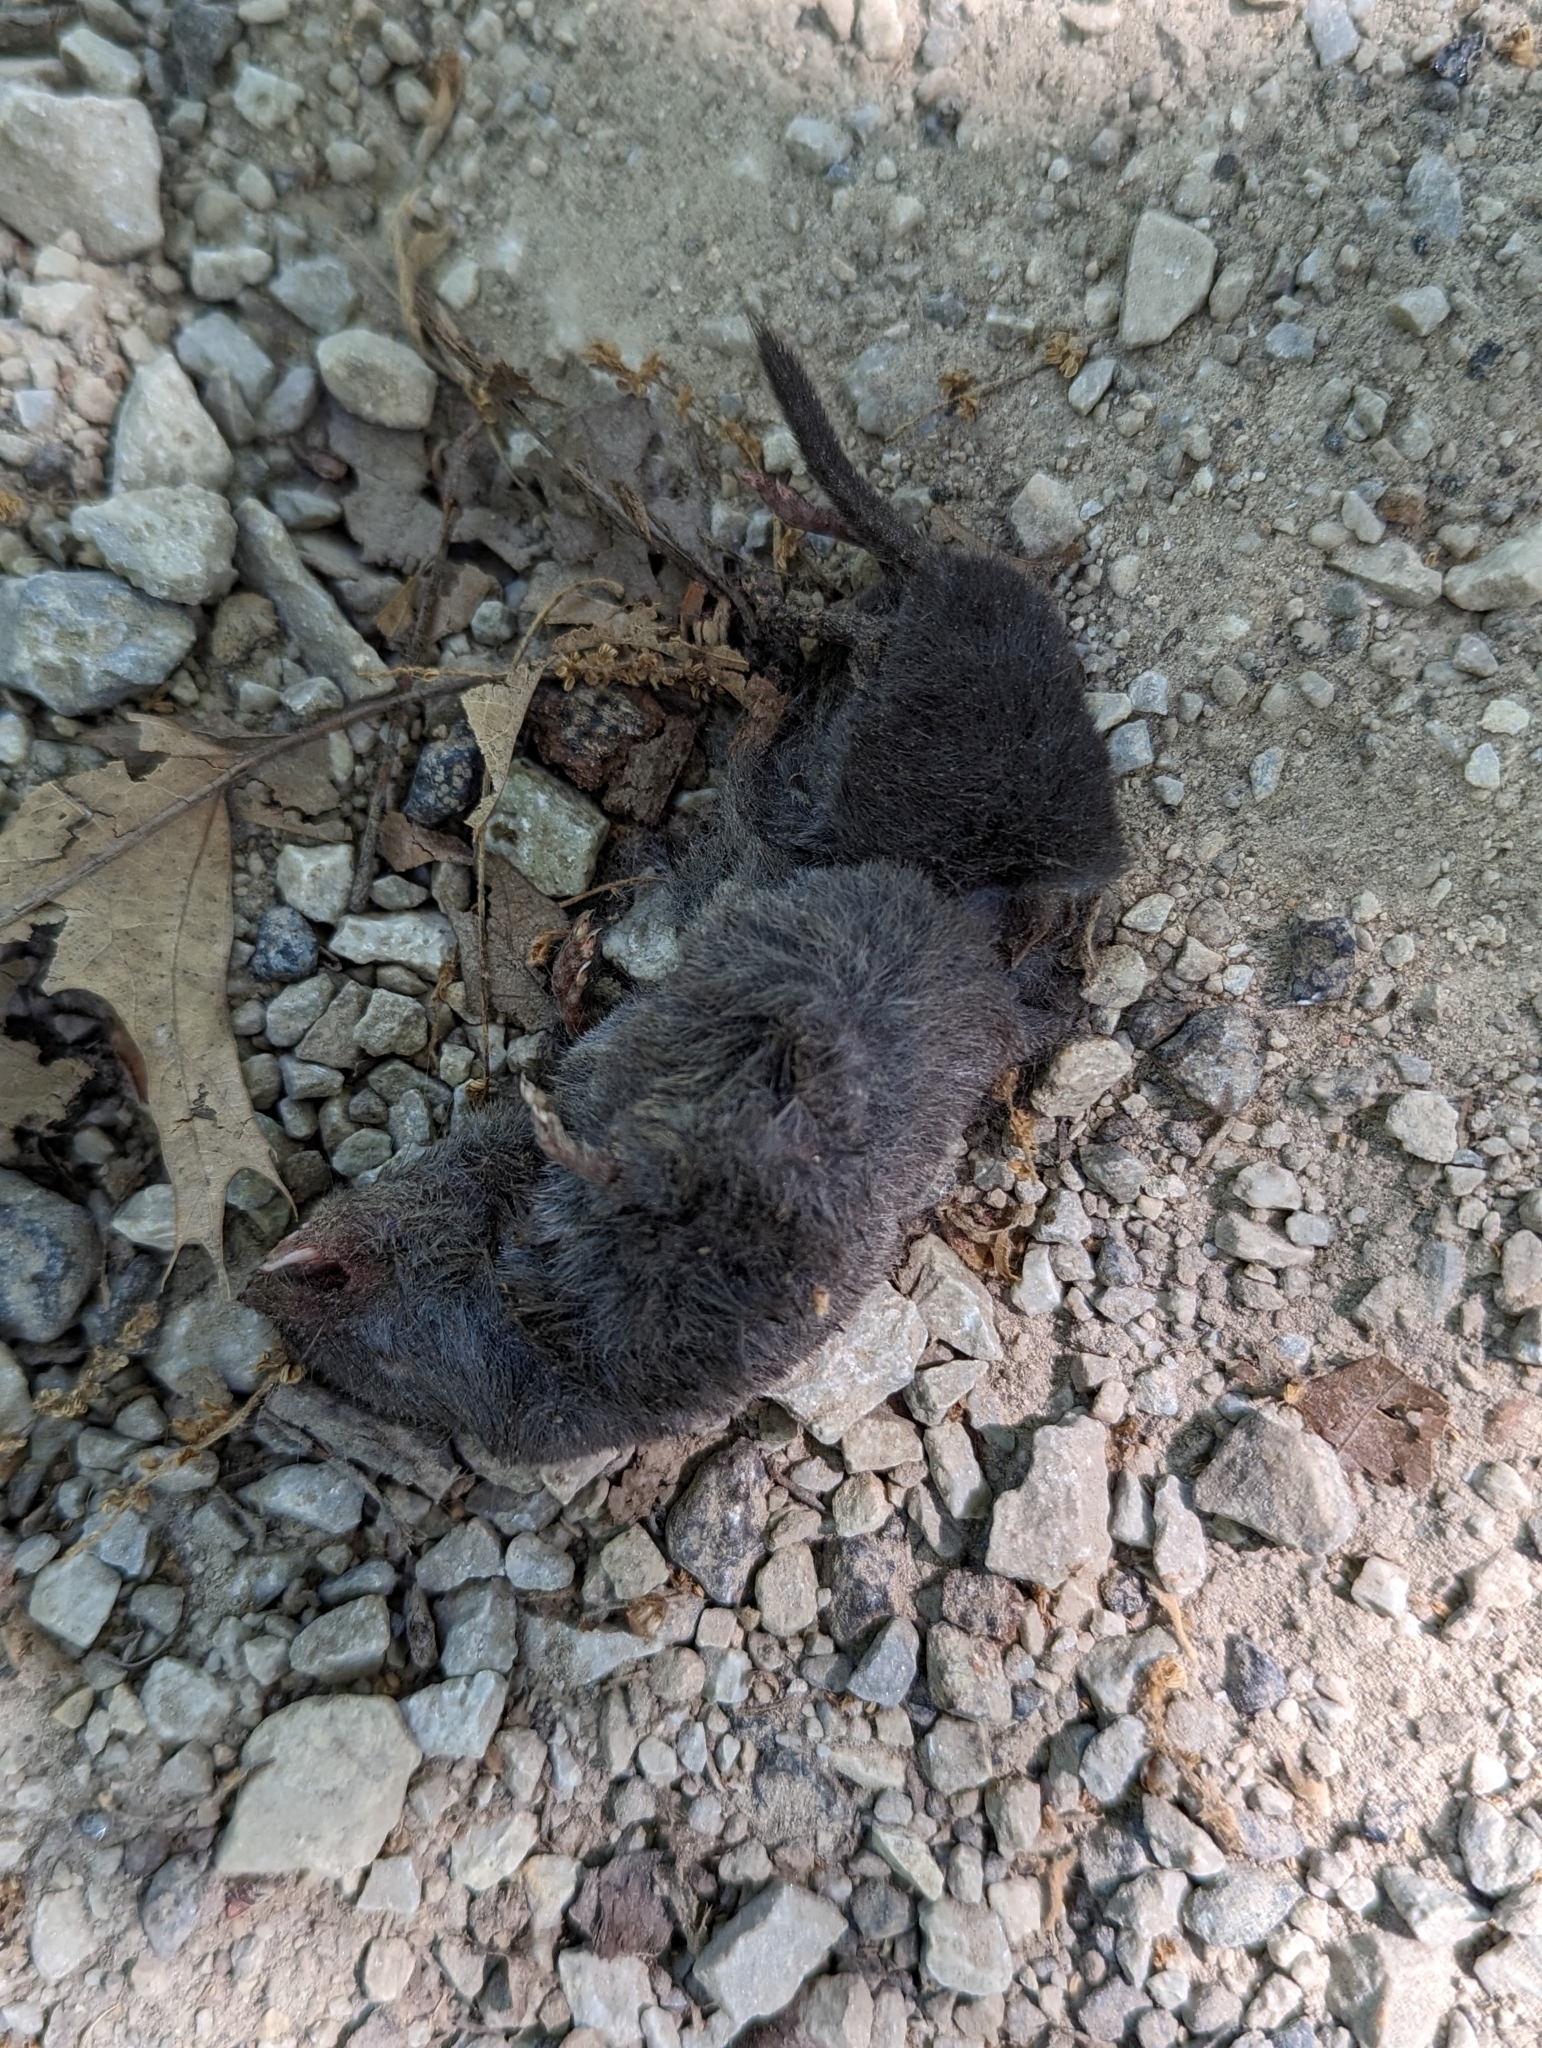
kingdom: Animalia
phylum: Chordata
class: Mammalia
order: Soricomorpha
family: Soricidae
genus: Blarina
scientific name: Blarina brevicauda
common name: Northern short-tailed shrew
